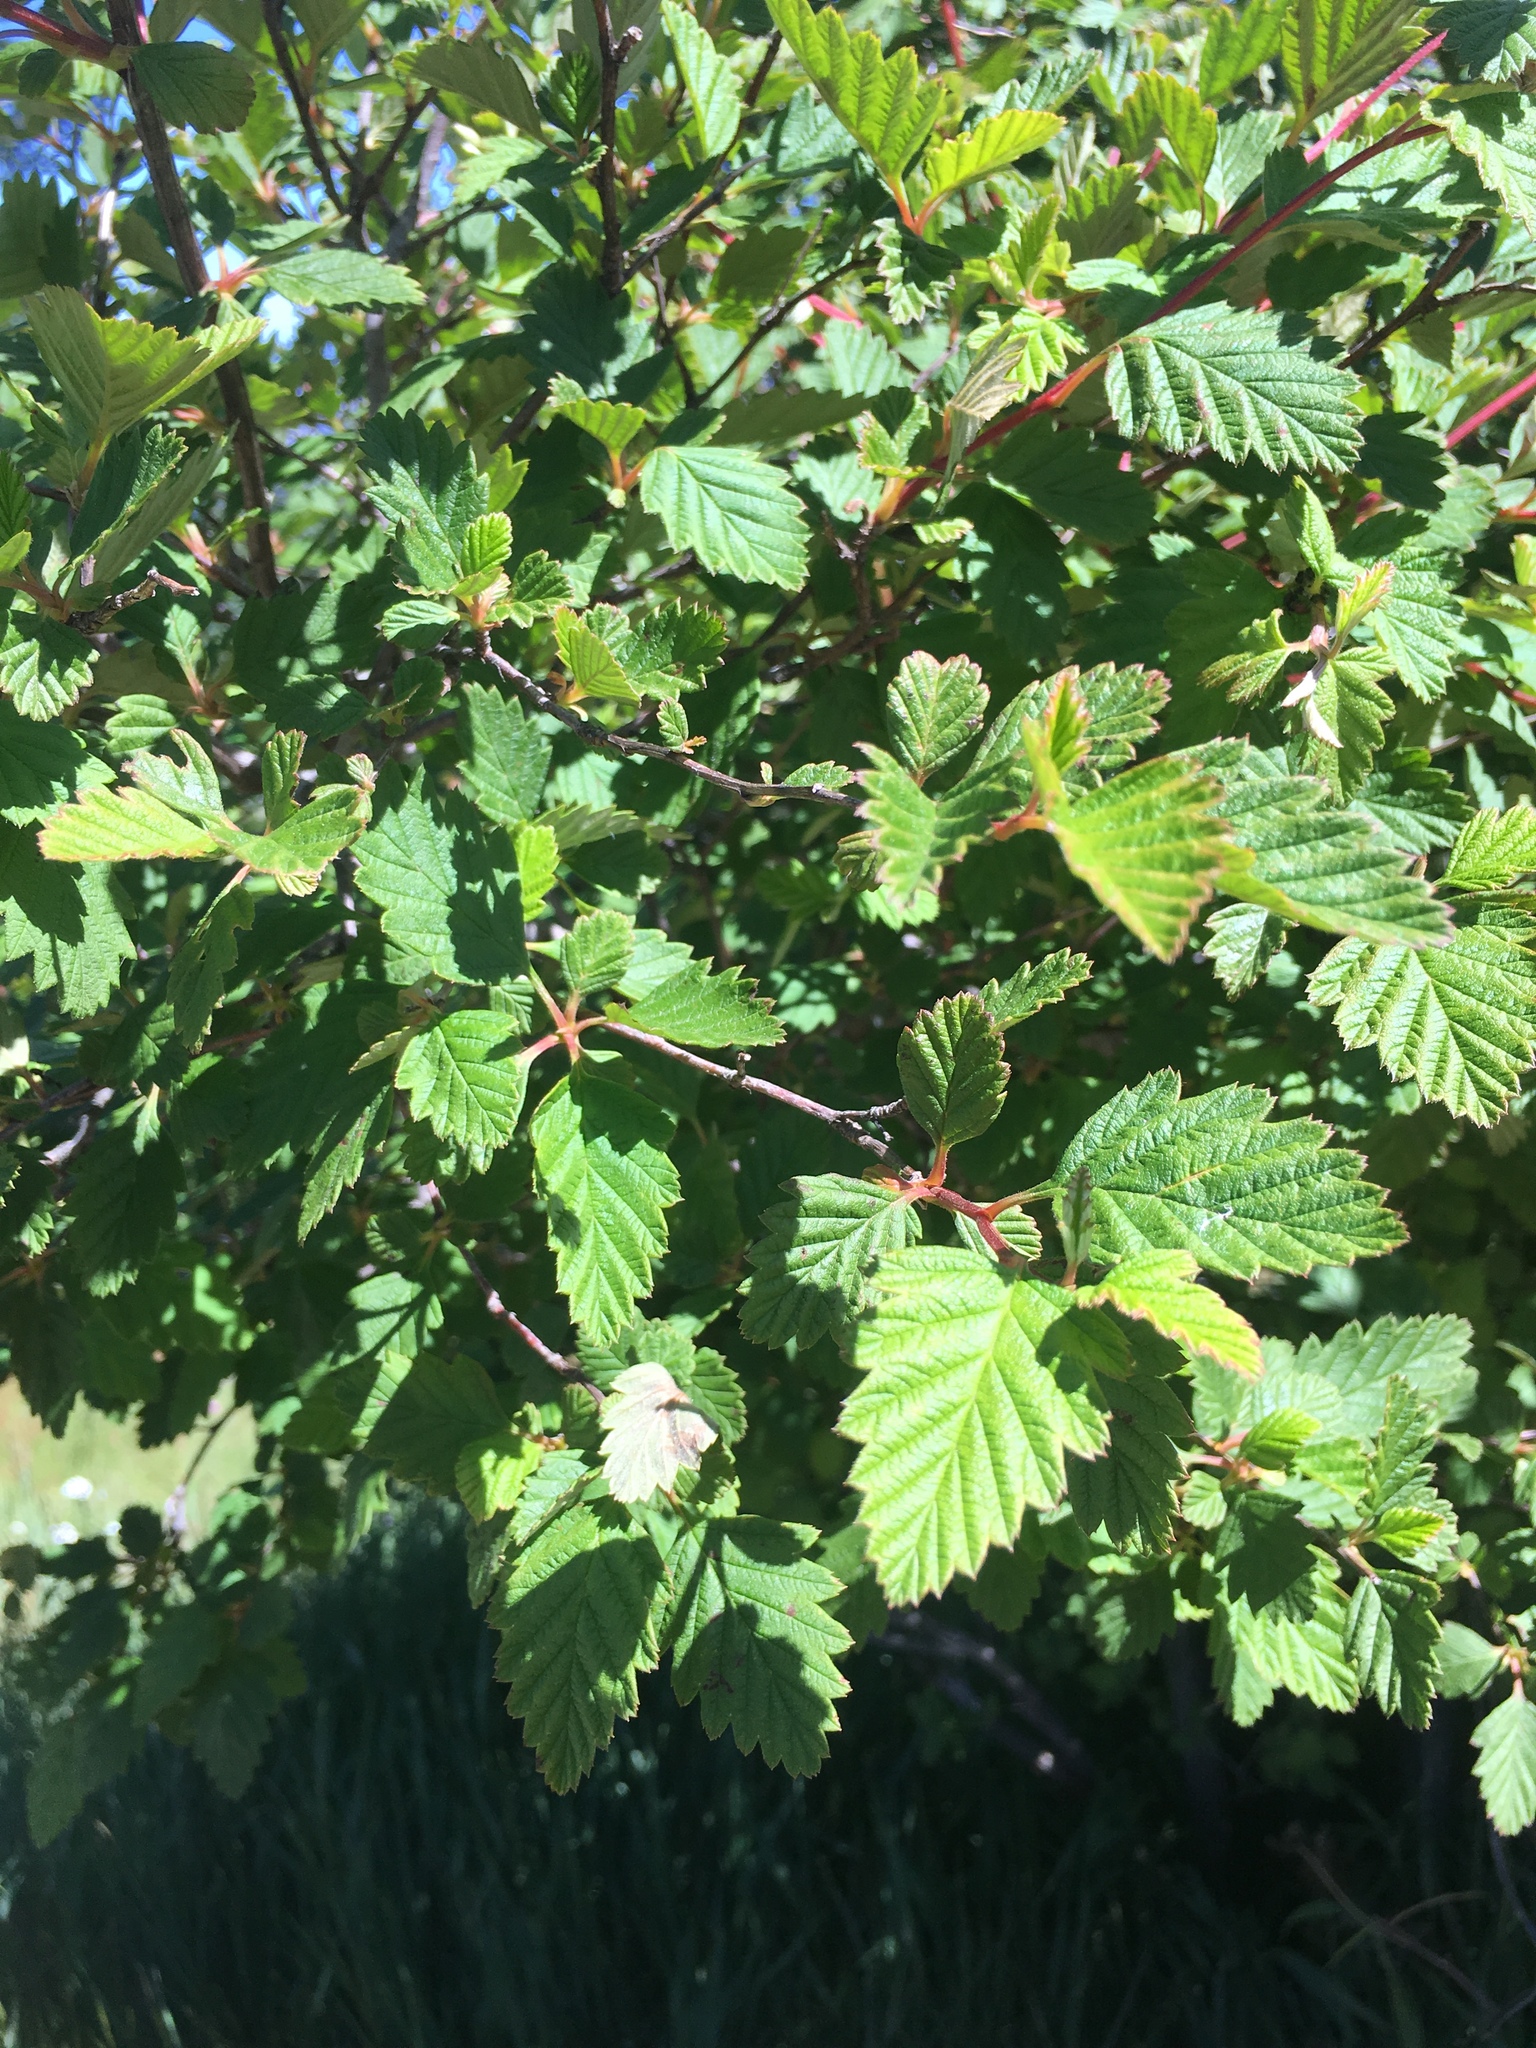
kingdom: Plantae
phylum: Tracheophyta
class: Magnoliopsida
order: Rosales
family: Rosaceae
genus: Holodiscus
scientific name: Holodiscus discolor
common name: Oceanspray
